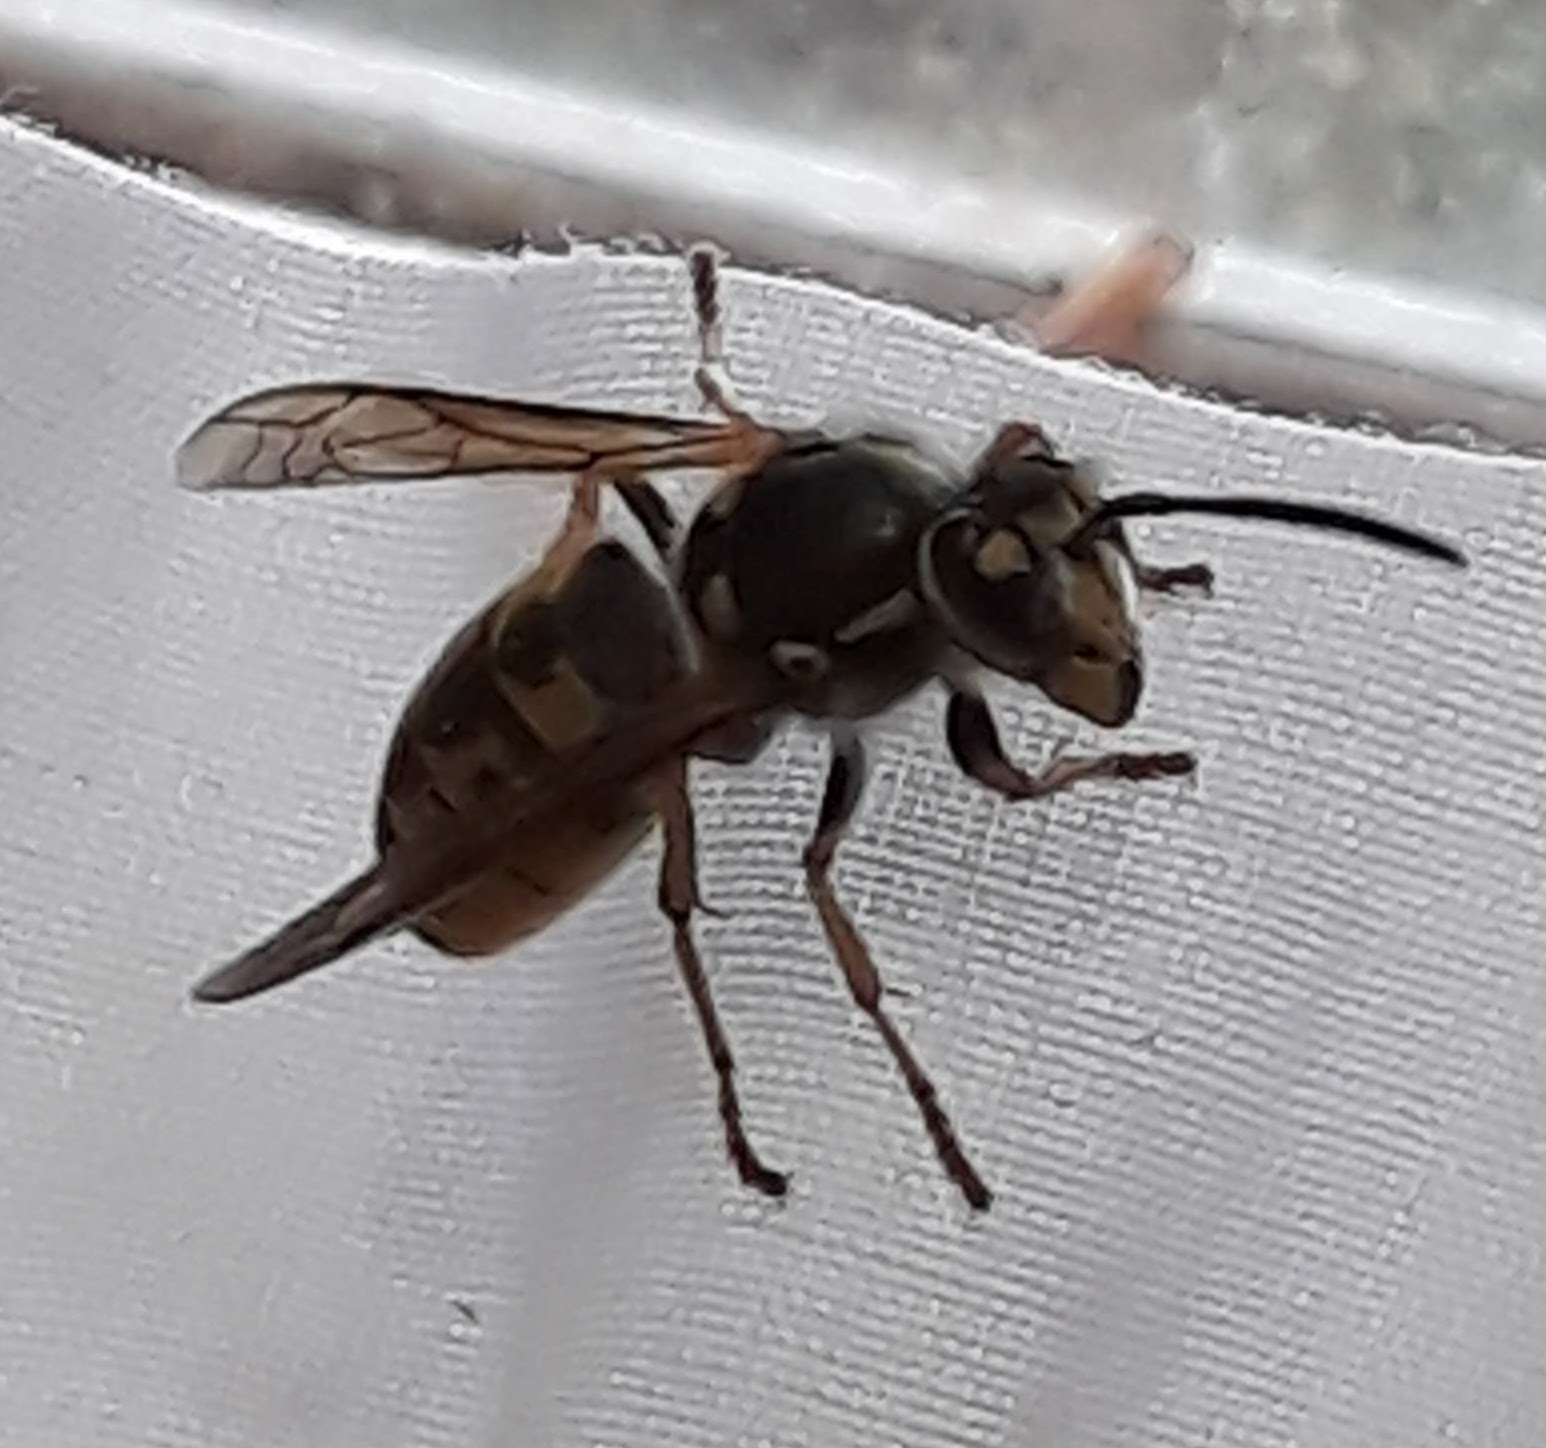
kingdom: Animalia
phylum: Arthropoda
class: Insecta
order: Hymenoptera
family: Vespidae
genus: Vespula
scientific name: Vespula germanica
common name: German wasp
